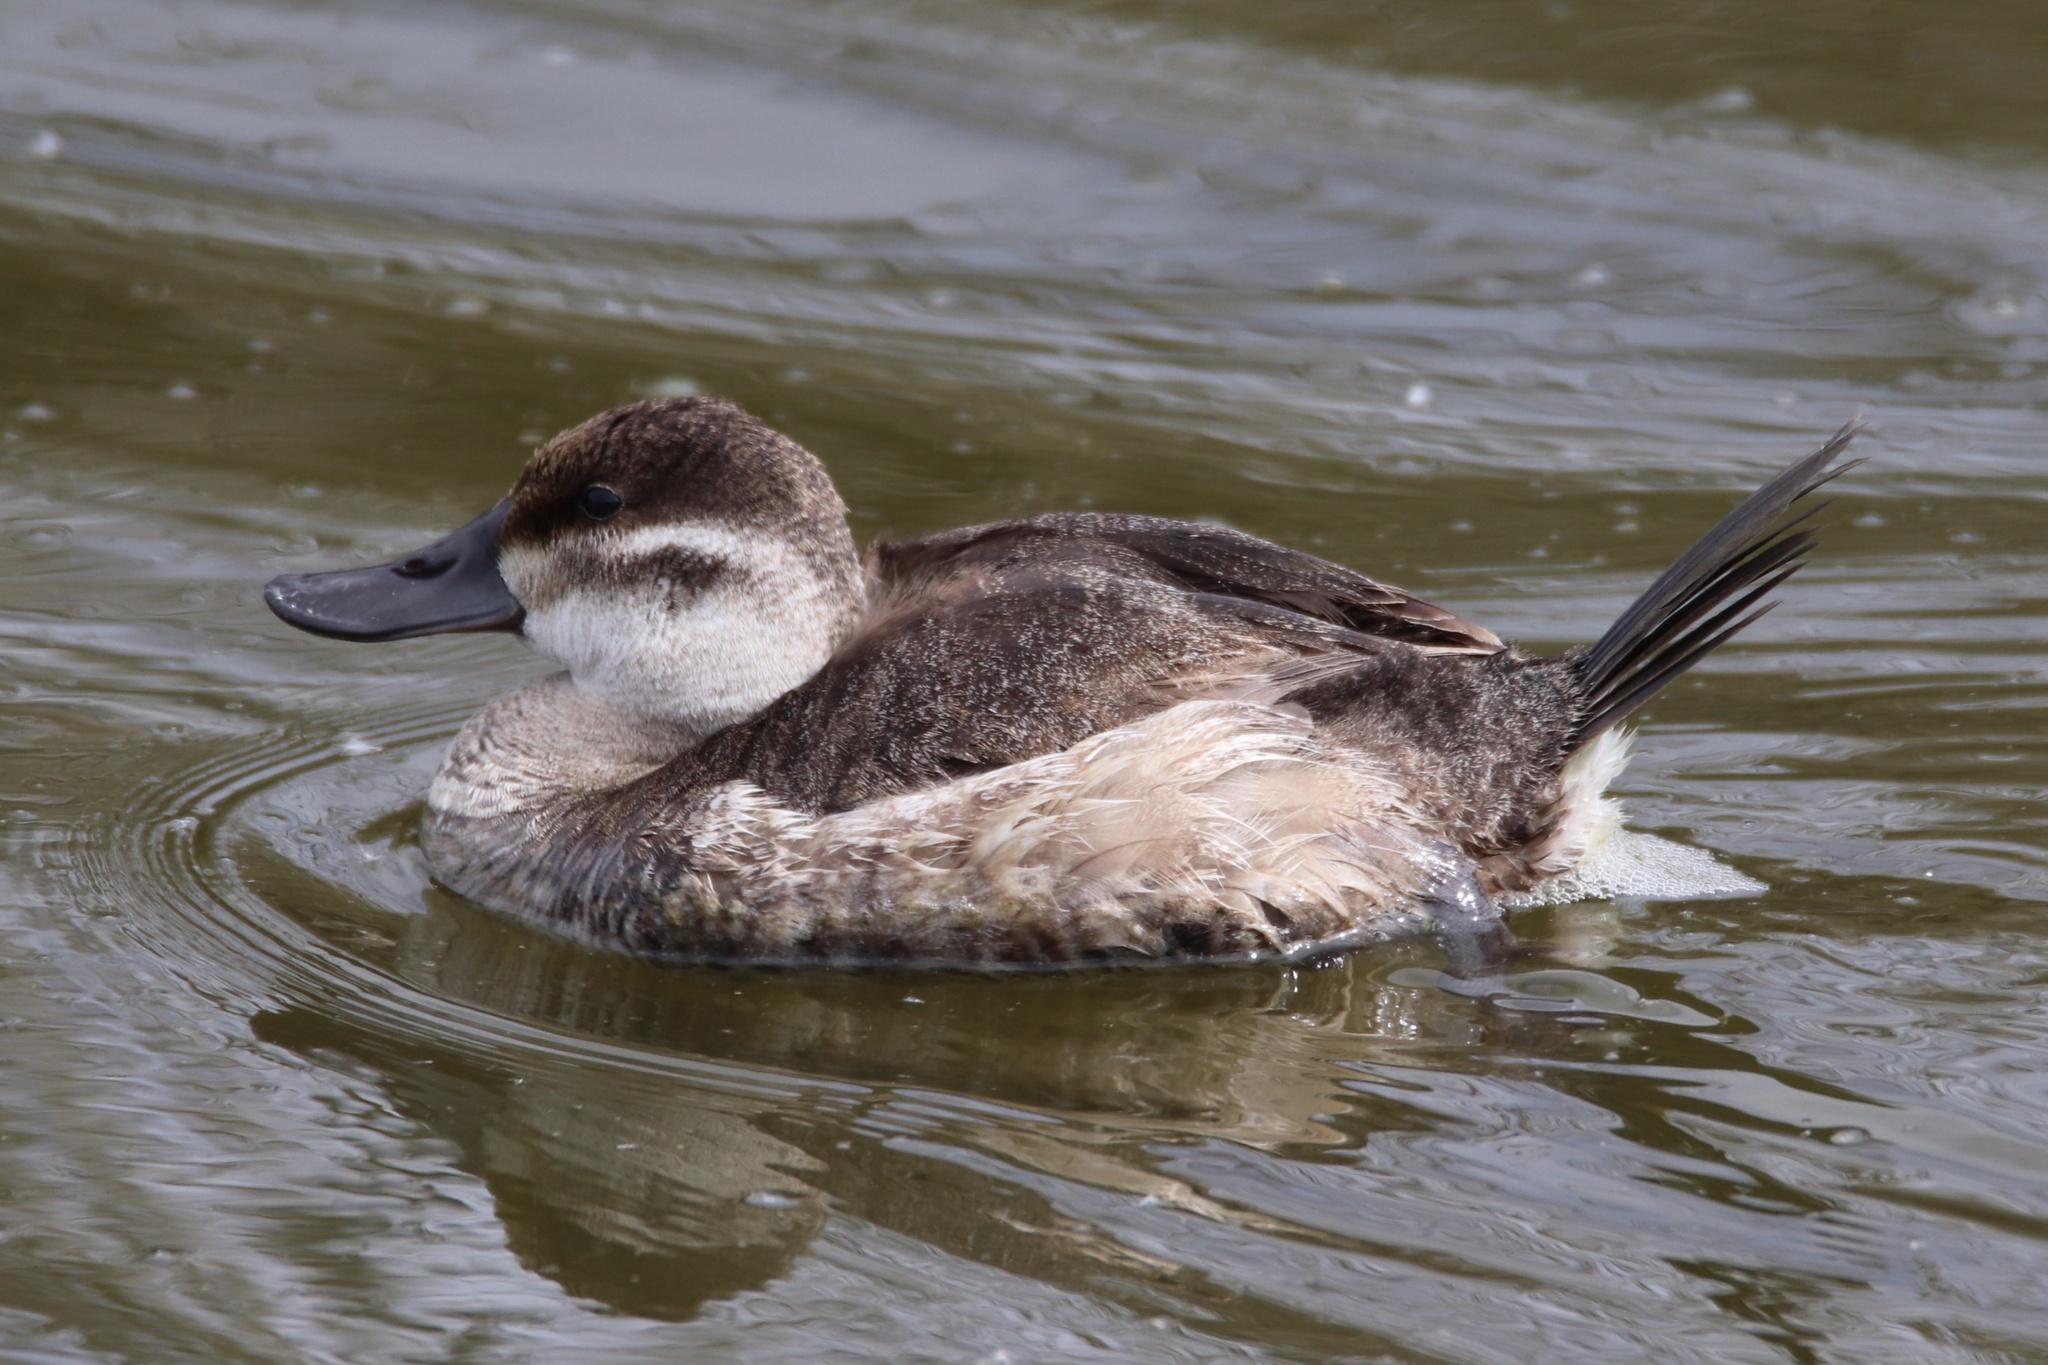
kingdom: Animalia
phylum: Chordata
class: Aves
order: Anseriformes
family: Anatidae
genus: Oxyura
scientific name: Oxyura jamaicensis
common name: Ruddy duck
